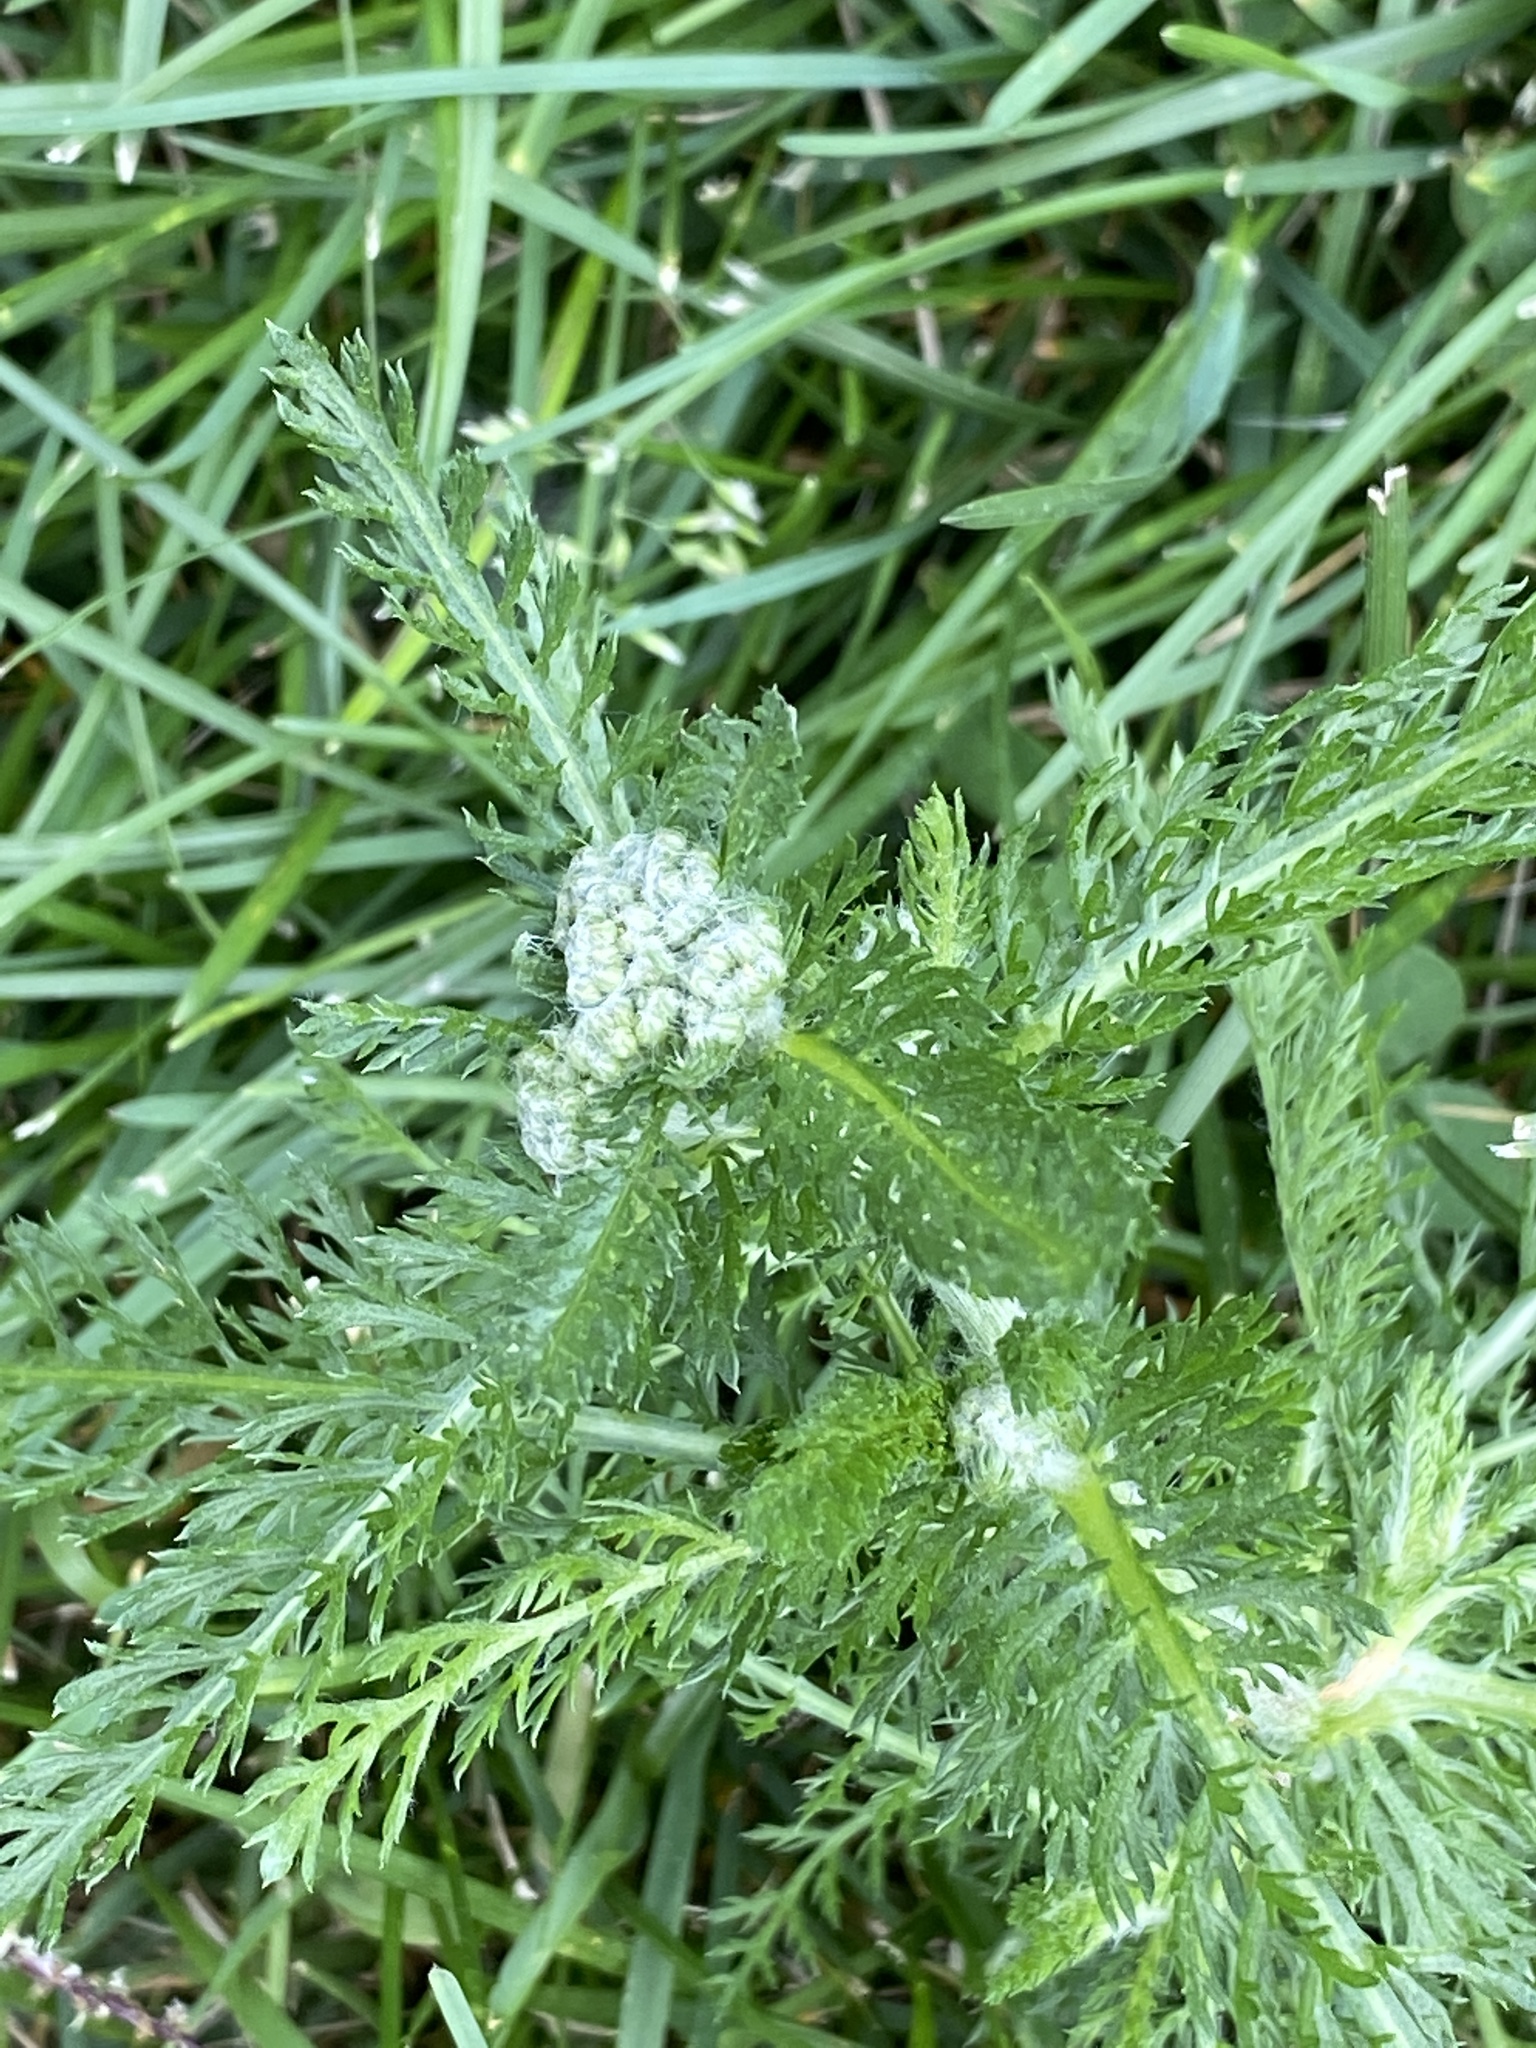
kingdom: Plantae
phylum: Tracheophyta
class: Magnoliopsida
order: Asterales
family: Asteraceae
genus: Achillea
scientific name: Achillea millefolium
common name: Yarrow
